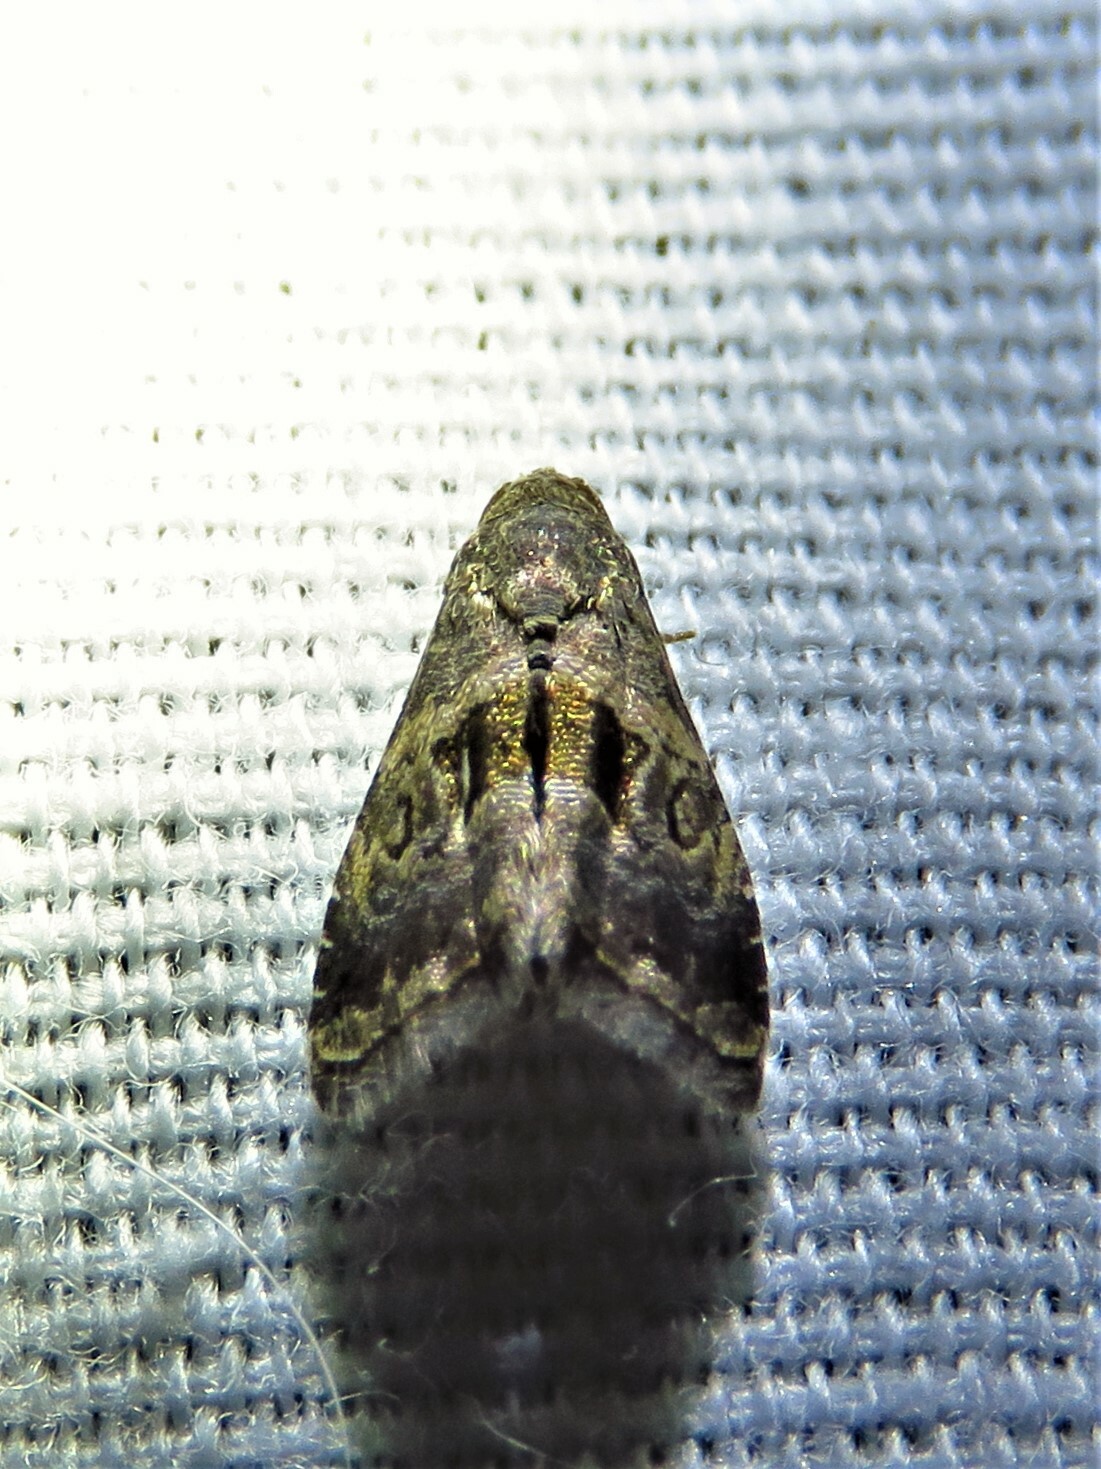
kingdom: Animalia
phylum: Arthropoda
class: Insecta
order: Lepidoptera
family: Noctuidae
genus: Tripudia
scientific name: Tripudia quadrifera
